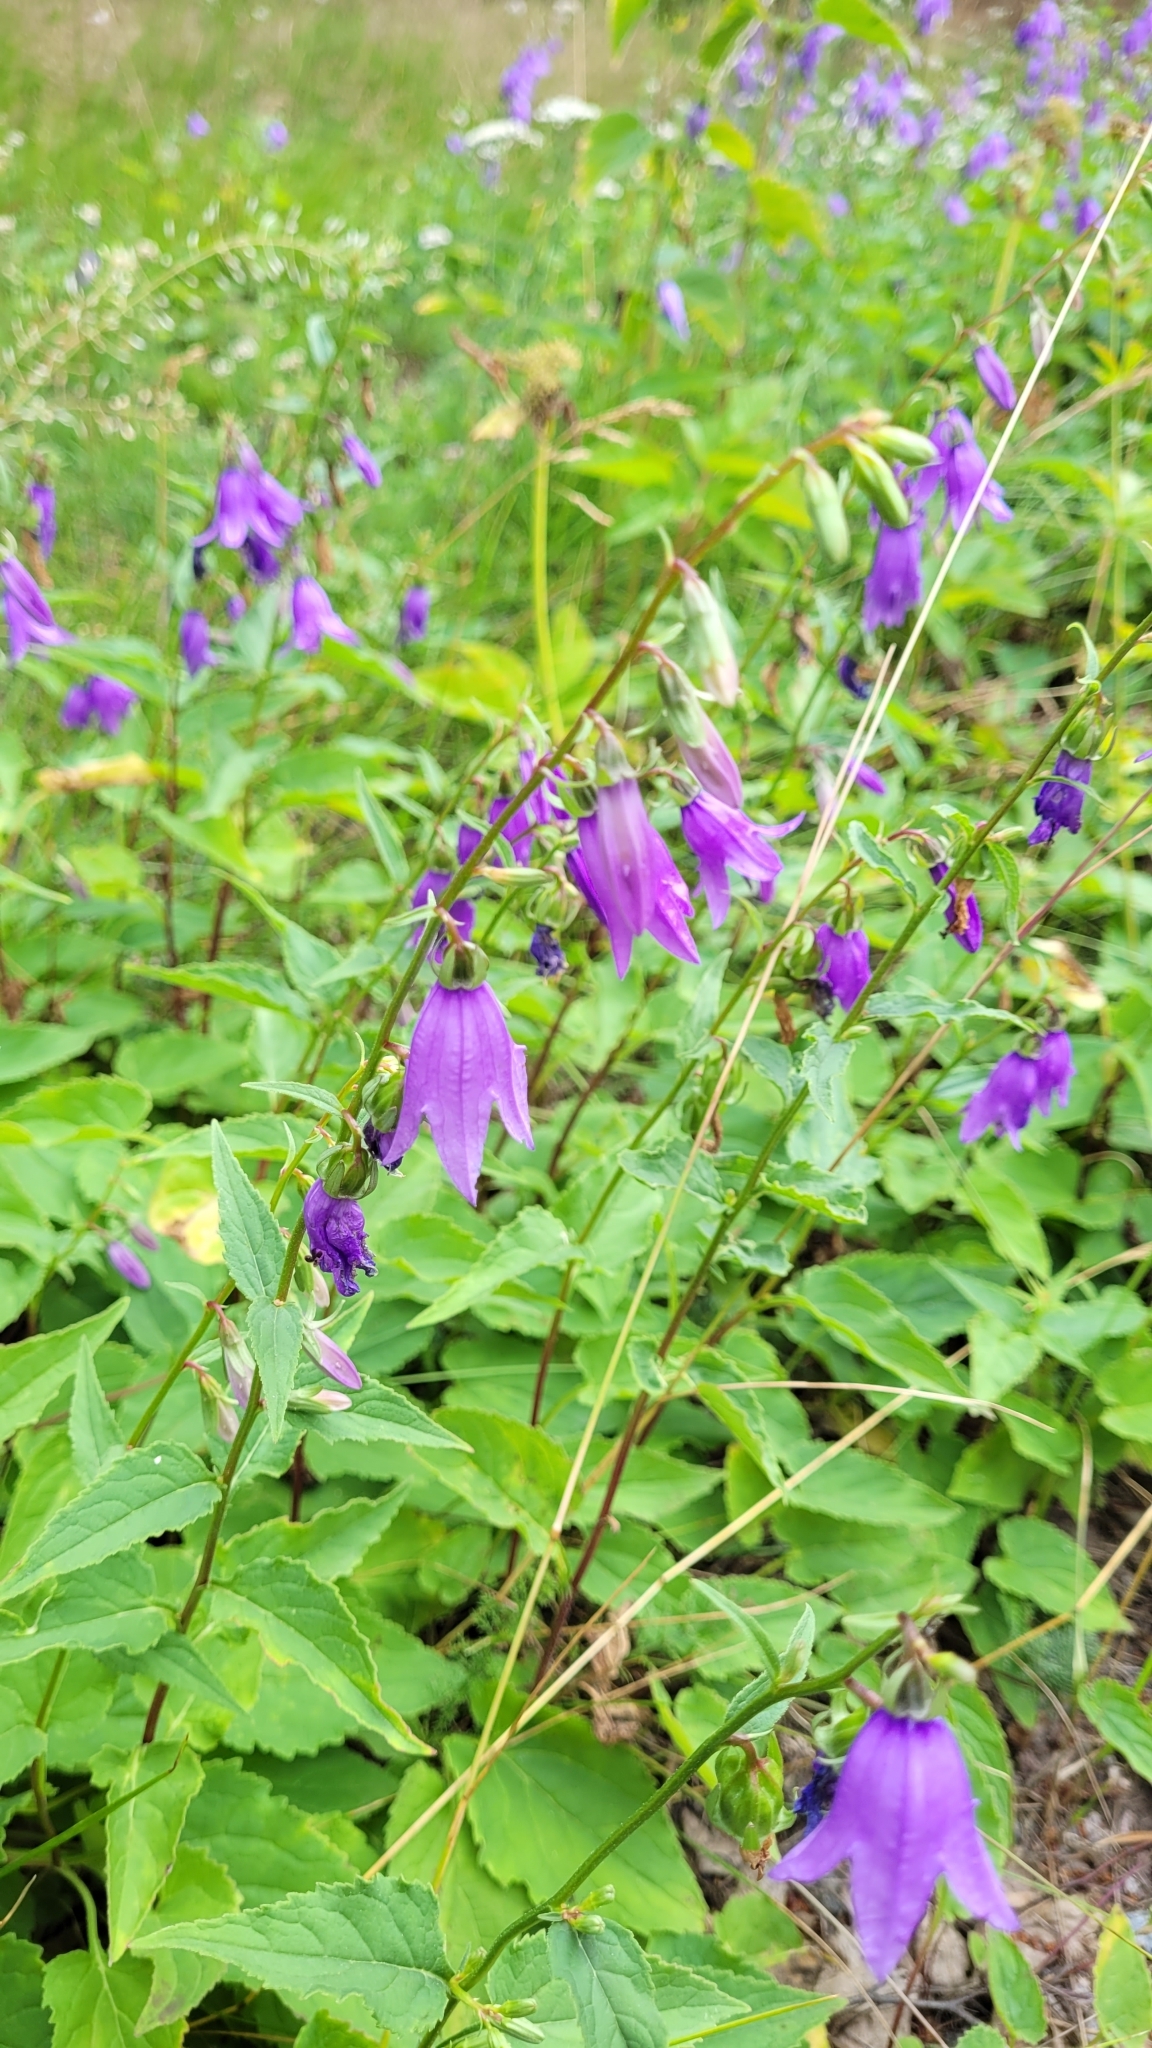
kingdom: Plantae
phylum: Tracheophyta
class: Magnoliopsida
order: Asterales
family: Campanulaceae
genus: Campanula
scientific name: Campanula rapunculoides
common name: Creeping bellflower
